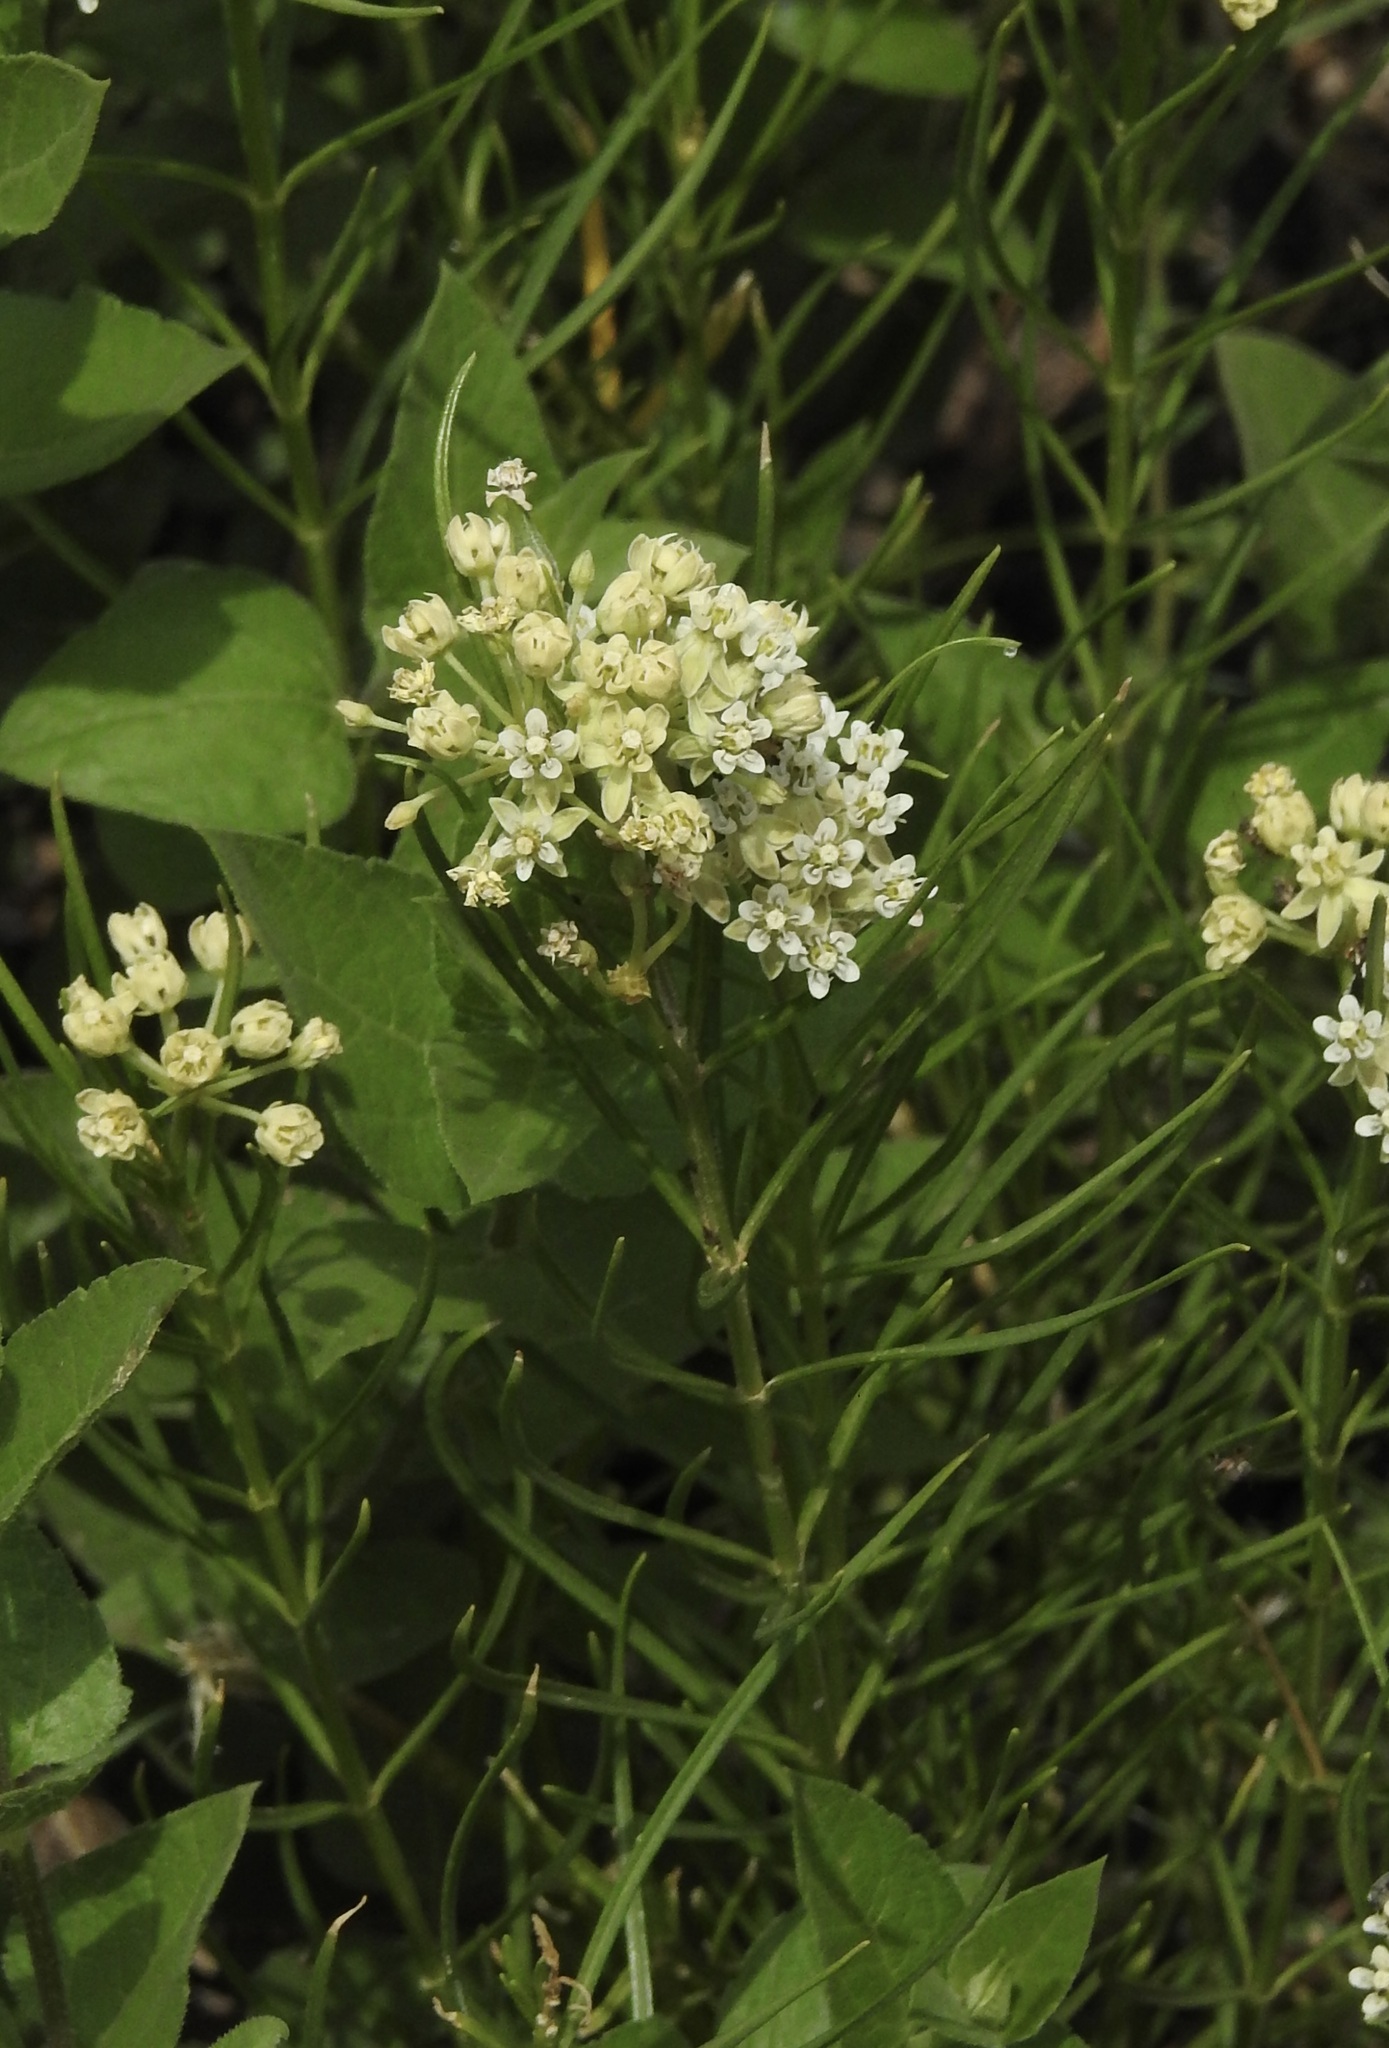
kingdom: Plantae
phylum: Tracheophyta
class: Magnoliopsida
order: Gentianales
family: Apocynaceae
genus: Asclepias
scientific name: Asclepias subverticillata
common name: Horsetail milkweed
